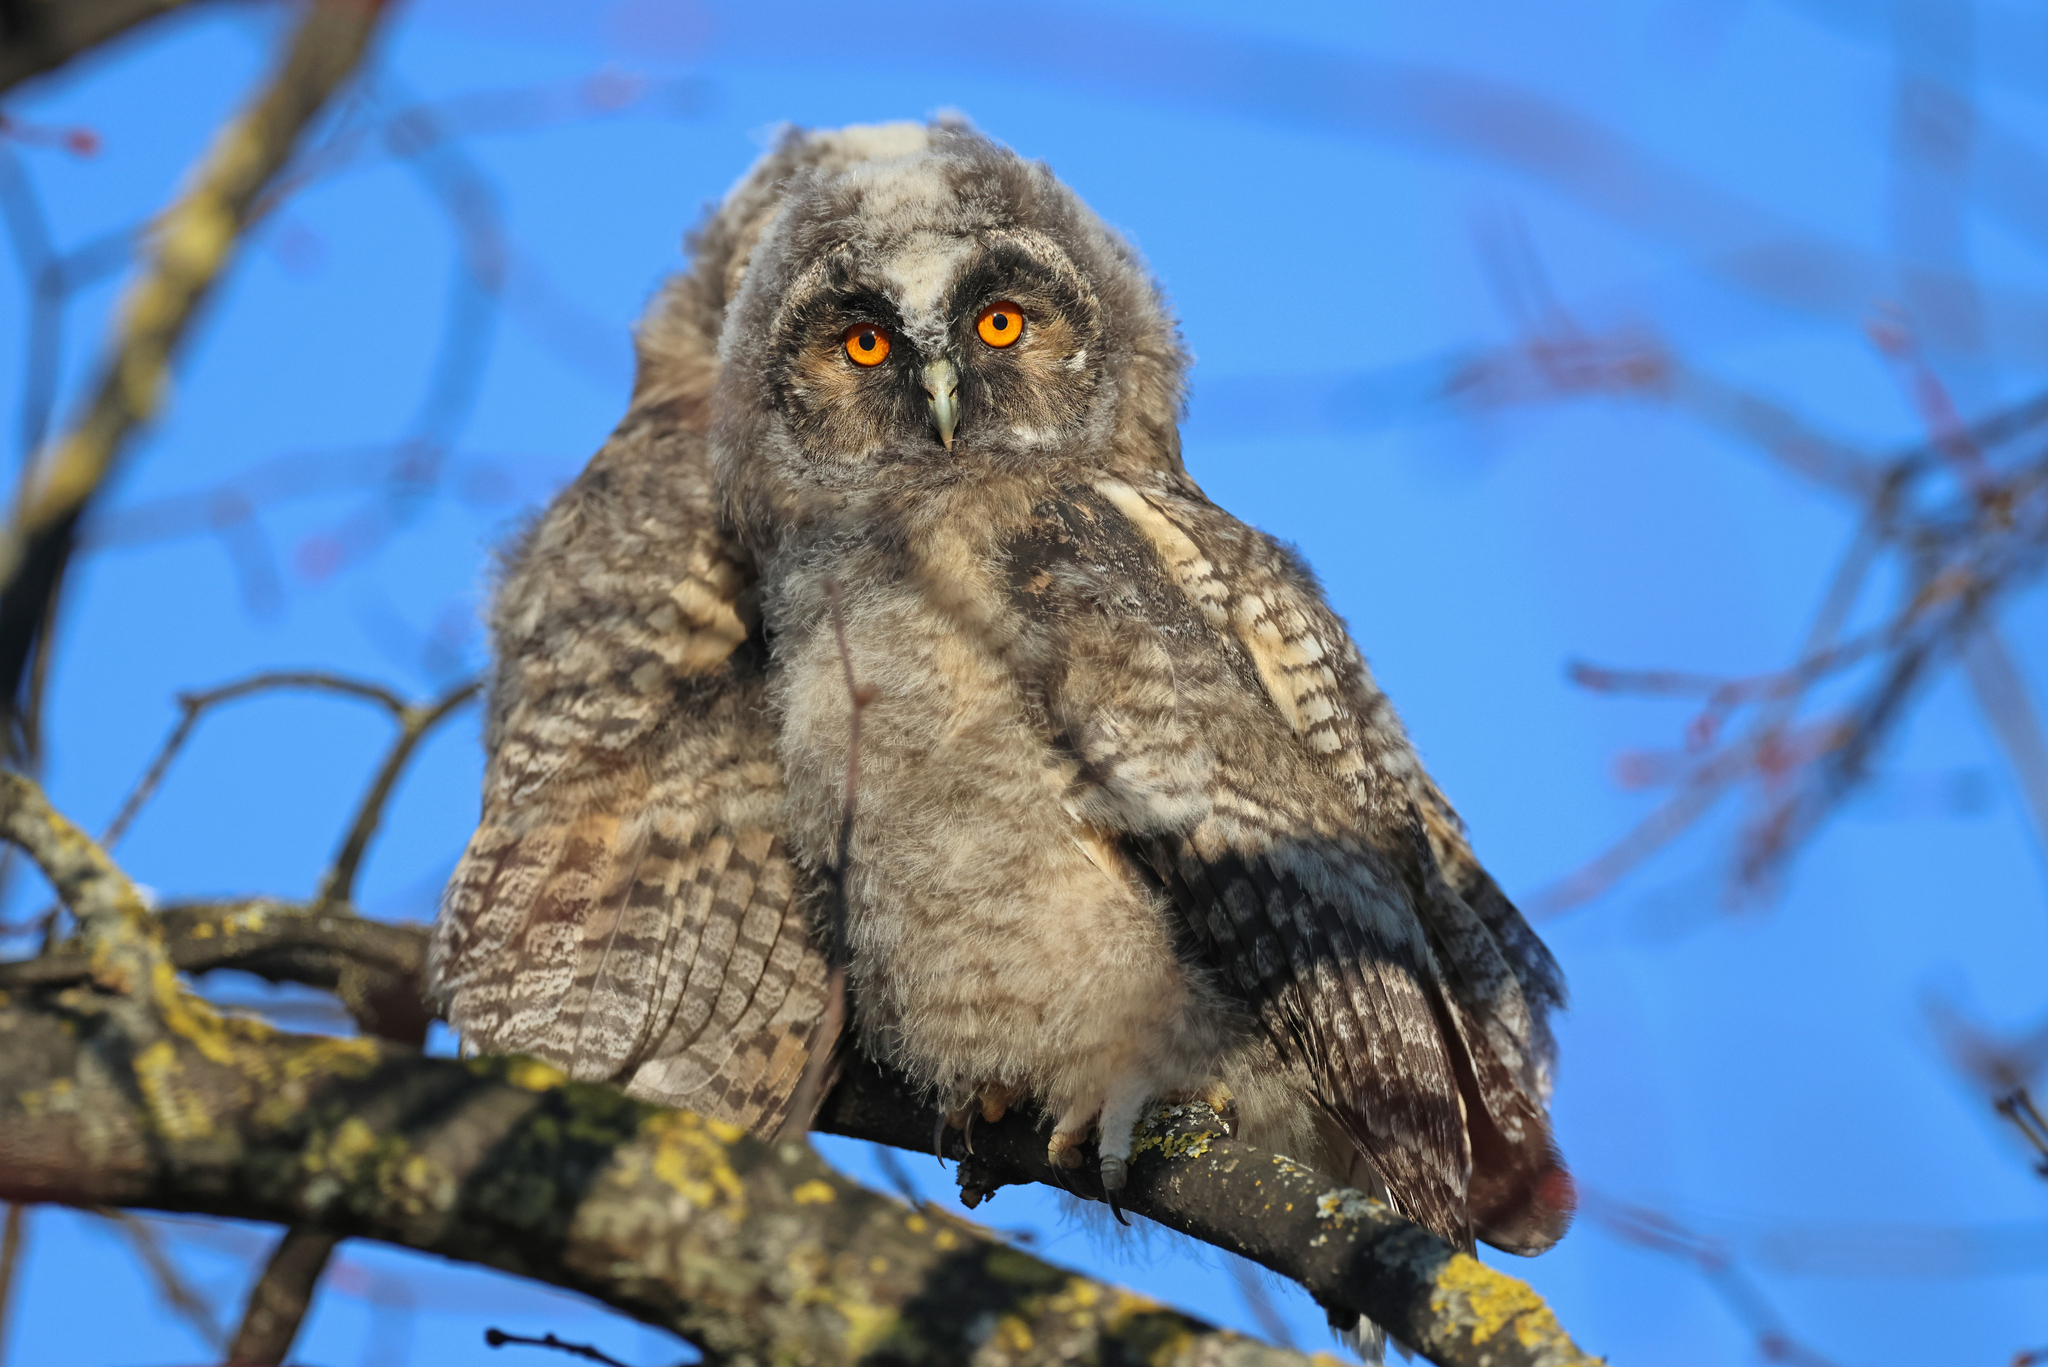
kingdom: Animalia
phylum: Chordata
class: Aves
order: Strigiformes
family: Strigidae
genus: Asio
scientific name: Asio otus
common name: Long-eared owl
